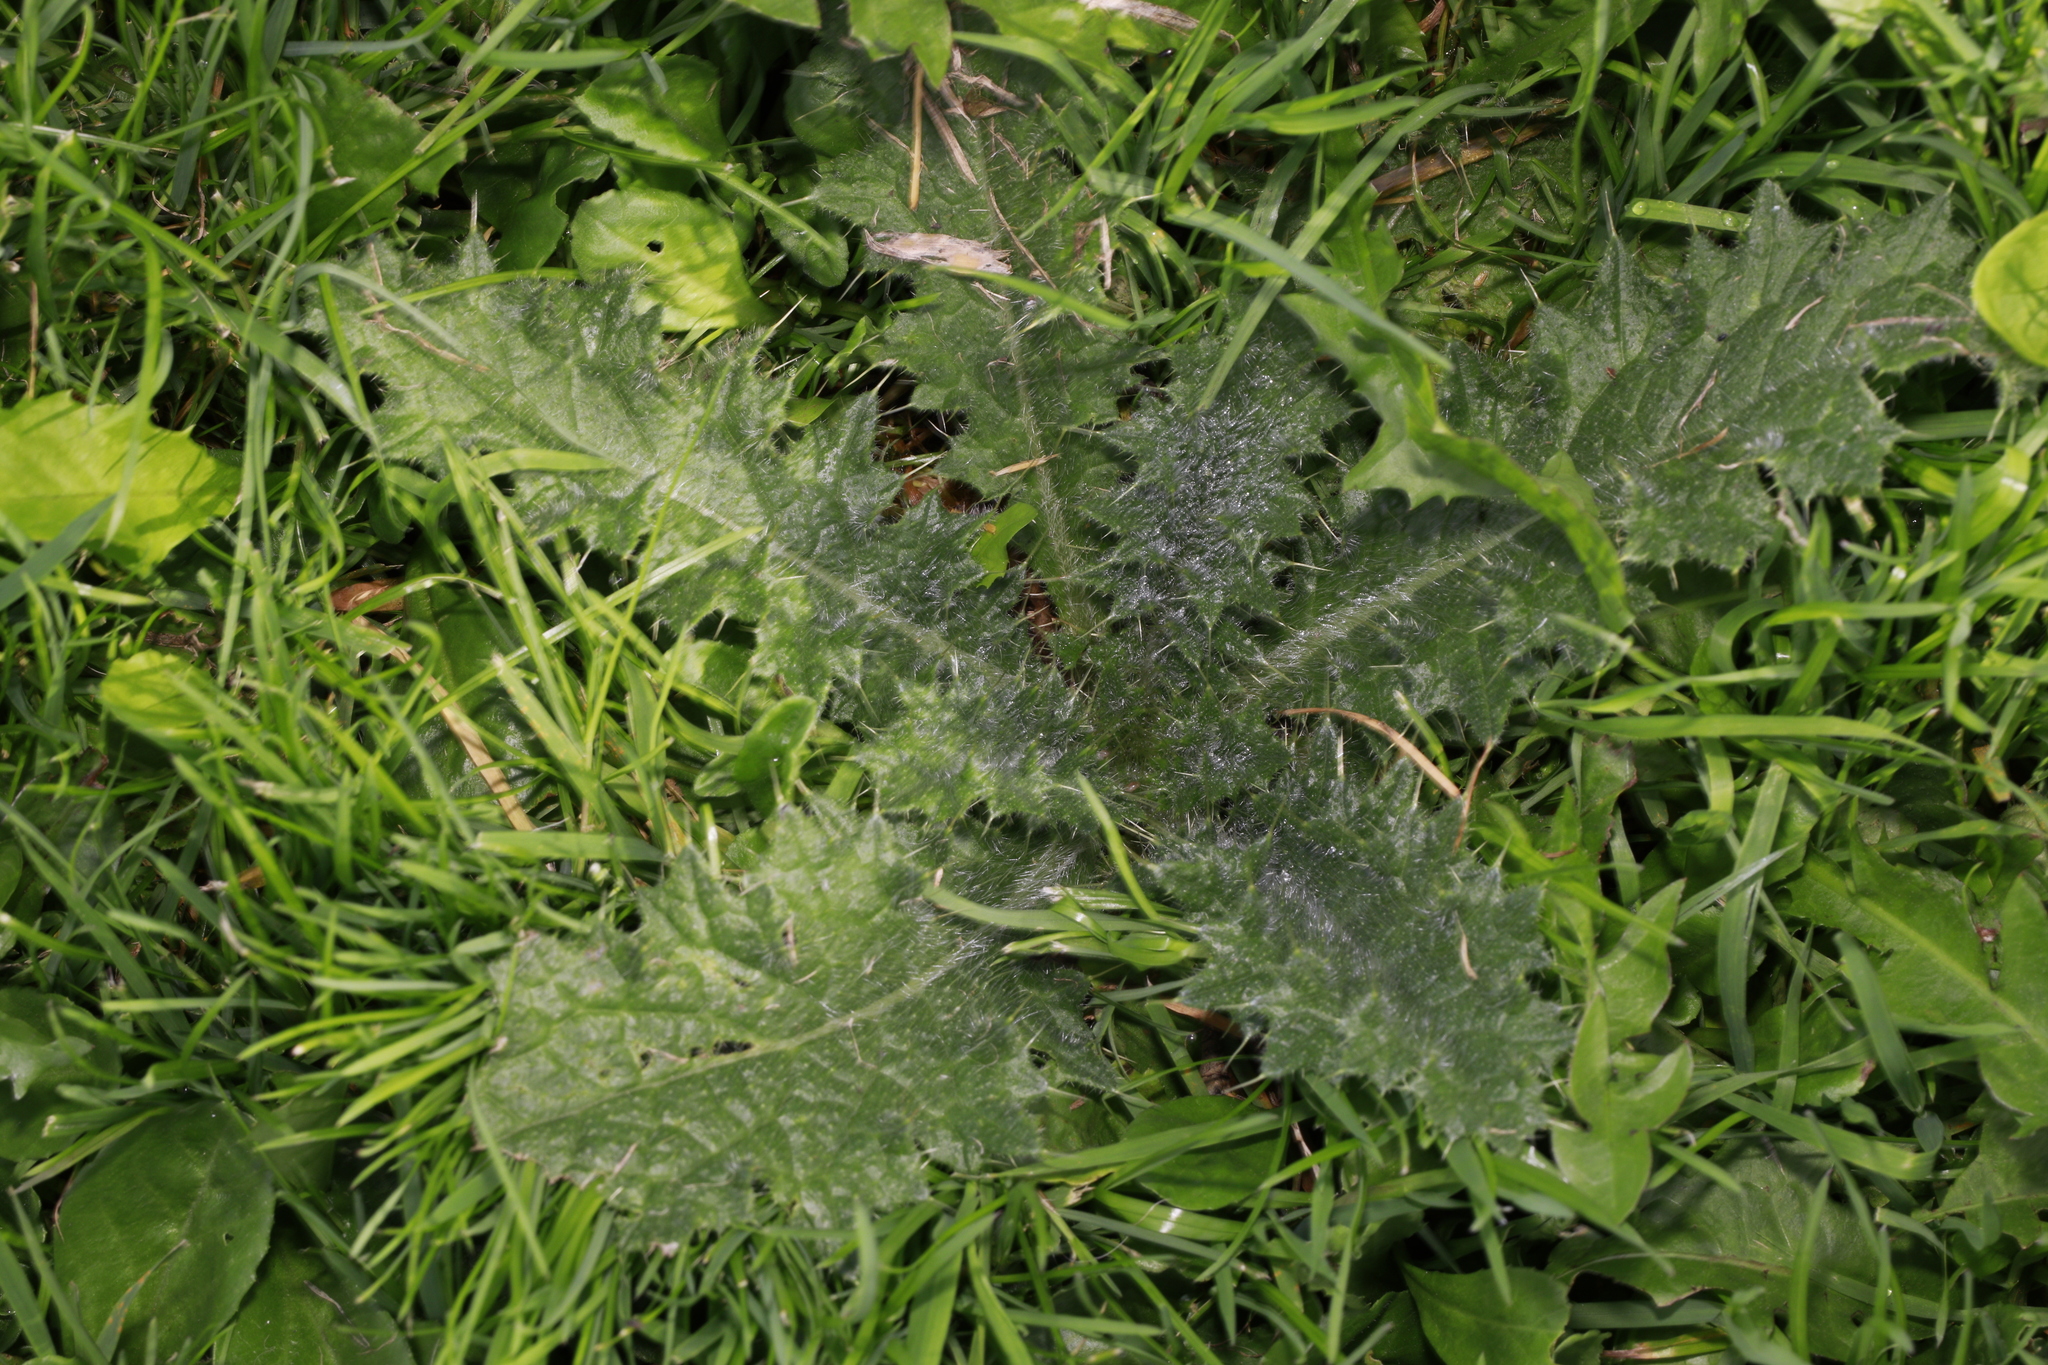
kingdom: Plantae
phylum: Tracheophyta
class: Magnoliopsida
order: Asterales
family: Asteraceae
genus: Cirsium
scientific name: Cirsium vulgare
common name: Bull thistle
